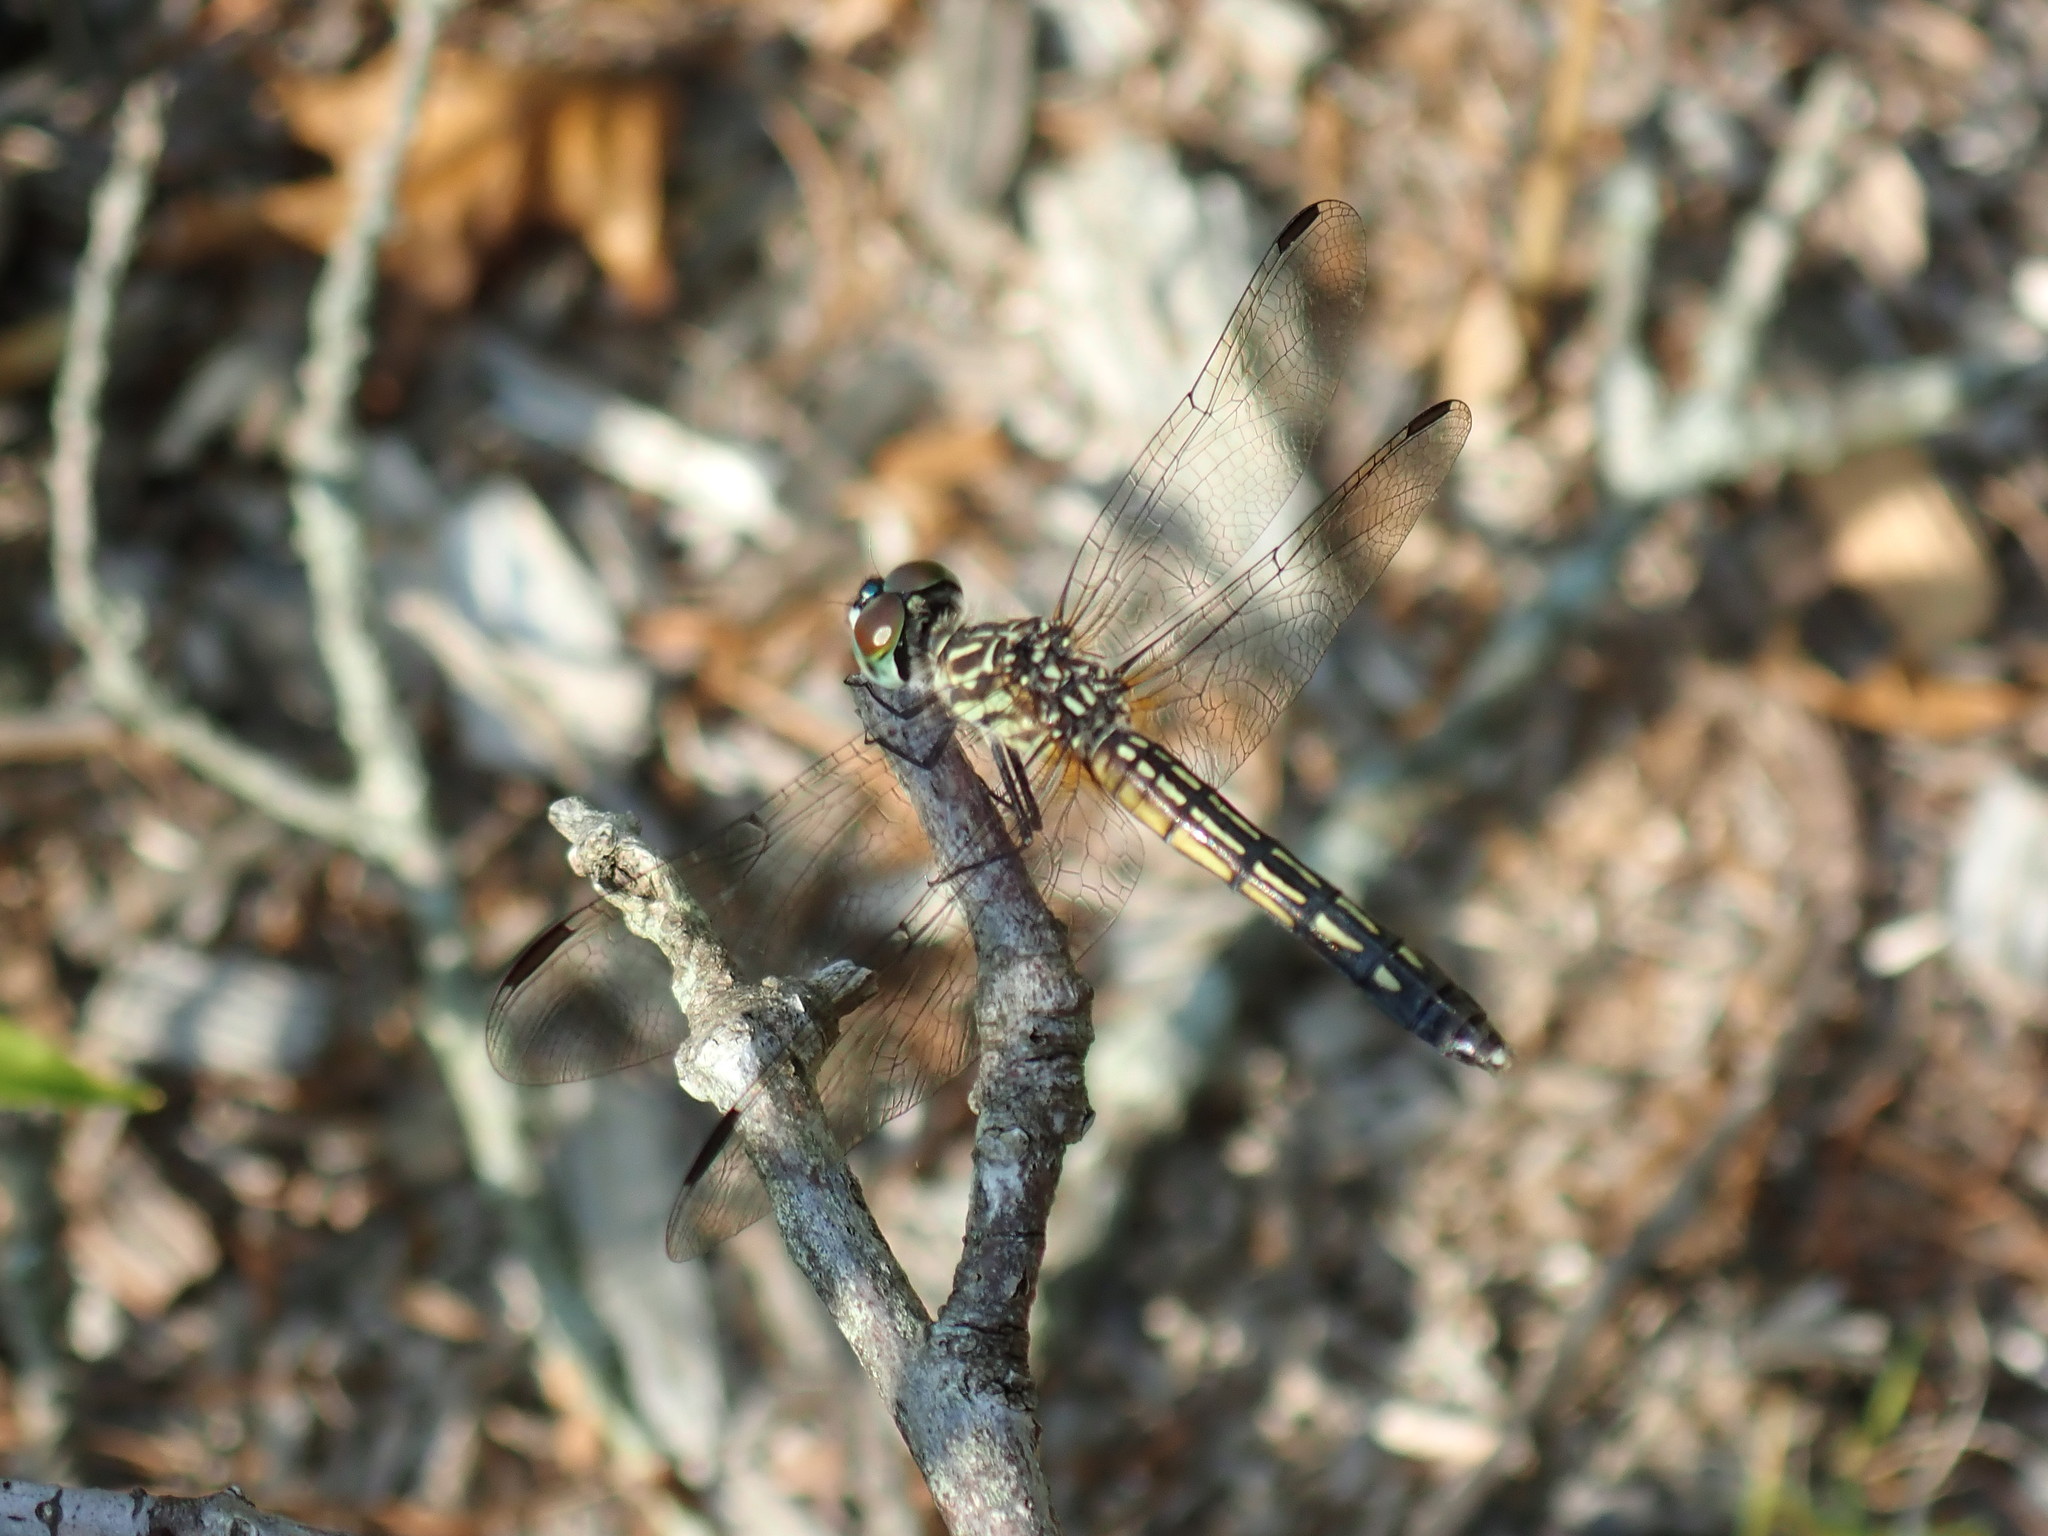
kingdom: Animalia
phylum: Arthropoda
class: Insecta
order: Odonata
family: Libellulidae
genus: Pachydiplax
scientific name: Pachydiplax longipennis
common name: Blue dasher
